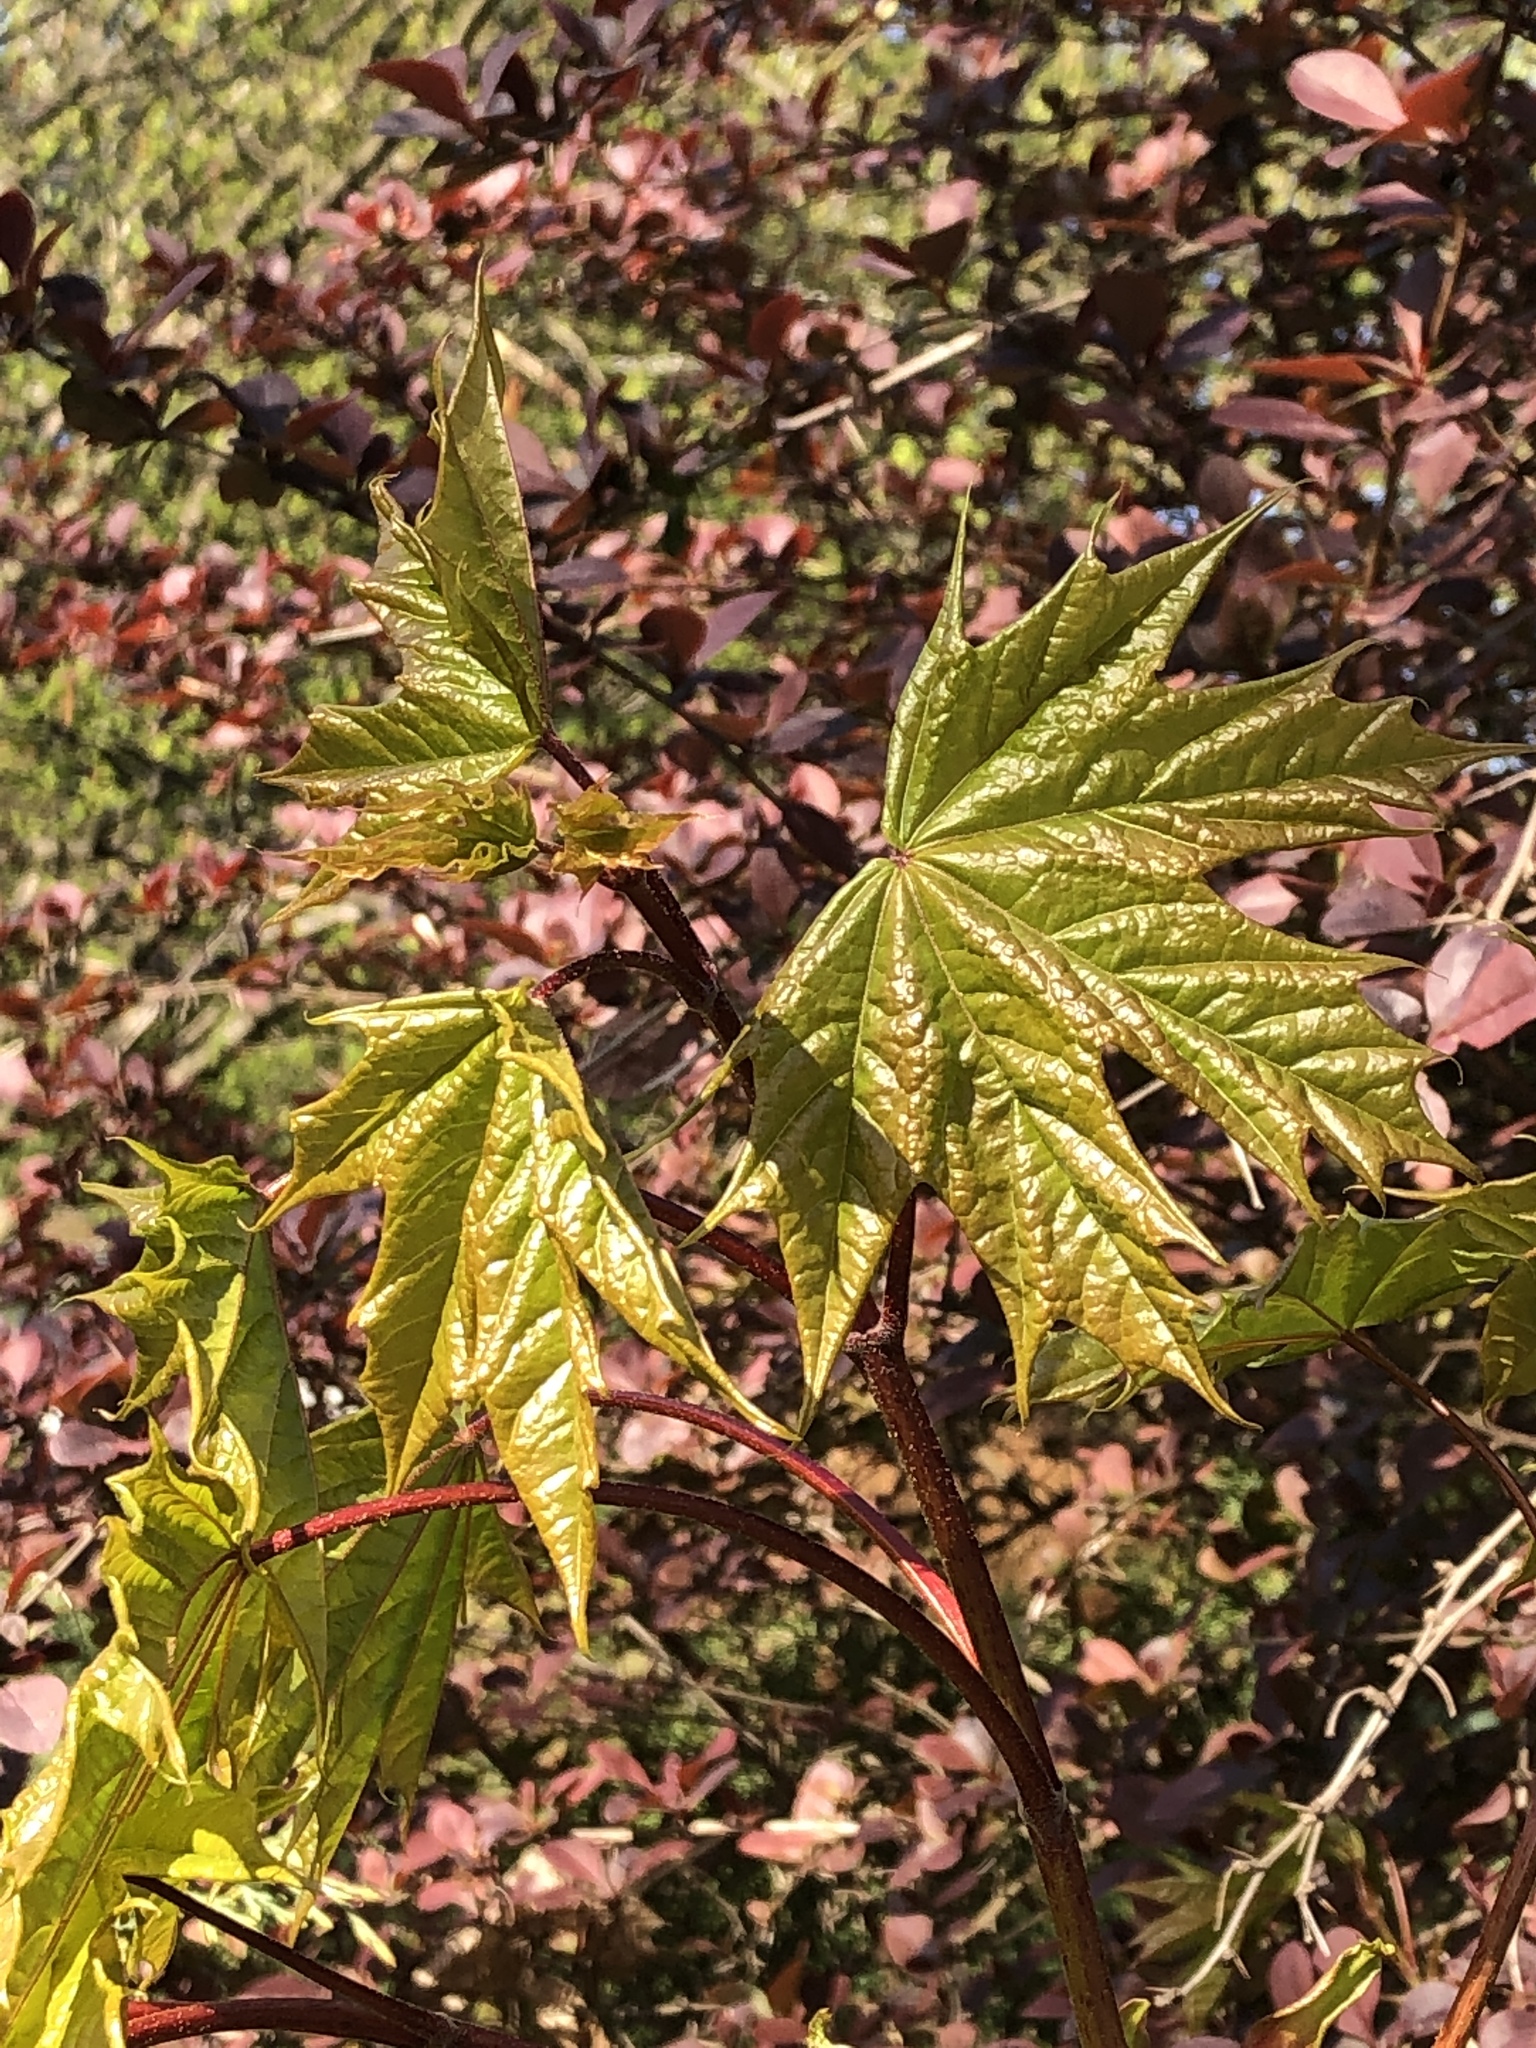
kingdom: Plantae
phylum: Tracheophyta
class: Magnoliopsida
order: Sapindales
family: Sapindaceae
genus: Acer
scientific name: Acer platanoides
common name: Norway maple
